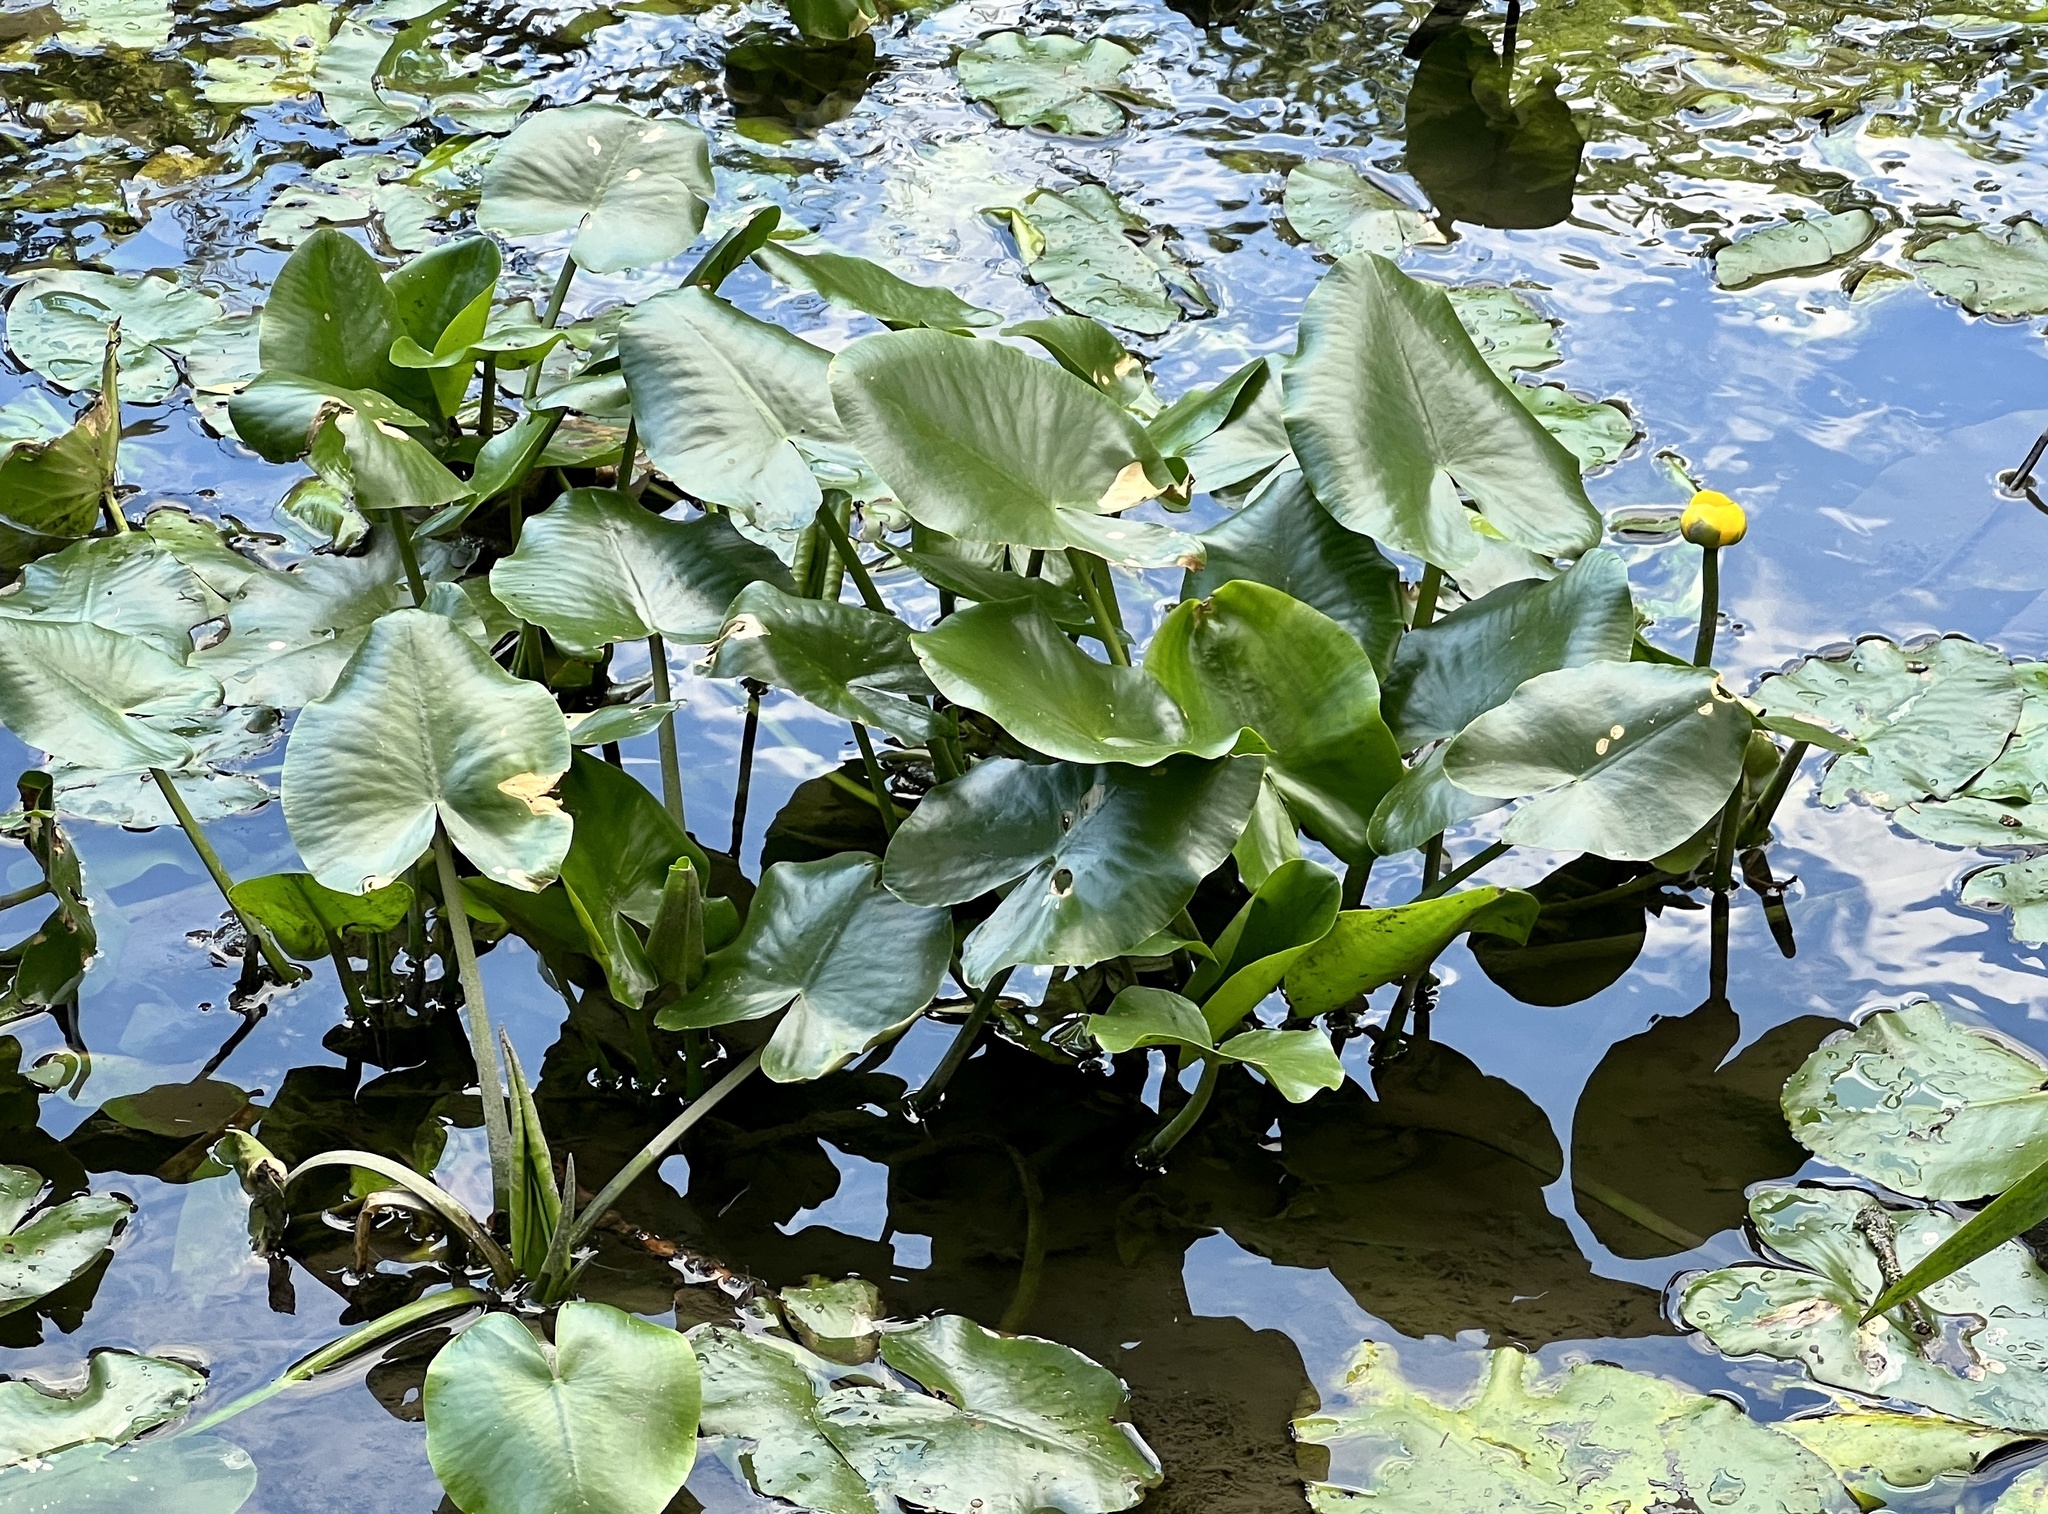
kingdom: Plantae
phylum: Tracheophyta
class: Magnoliopsida
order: Nymphaeales
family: Nymphaeaceae
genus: Nuphar
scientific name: Nuphar lutea
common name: Yellow water-lily
